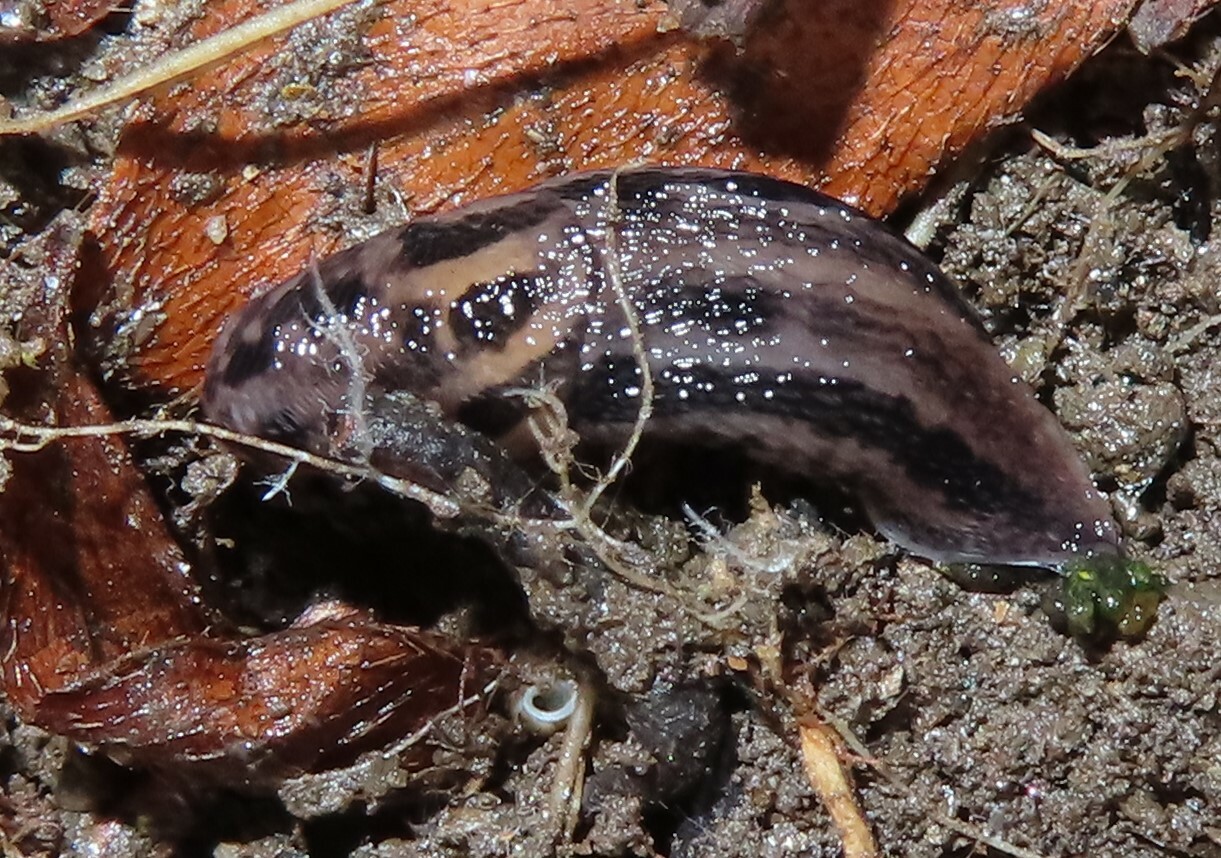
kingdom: Animalia
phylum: Mollusca
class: Gastropoda
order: Stylommatophora
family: Limacidae
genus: Limax
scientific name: Limax maximus
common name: Great grey slug
